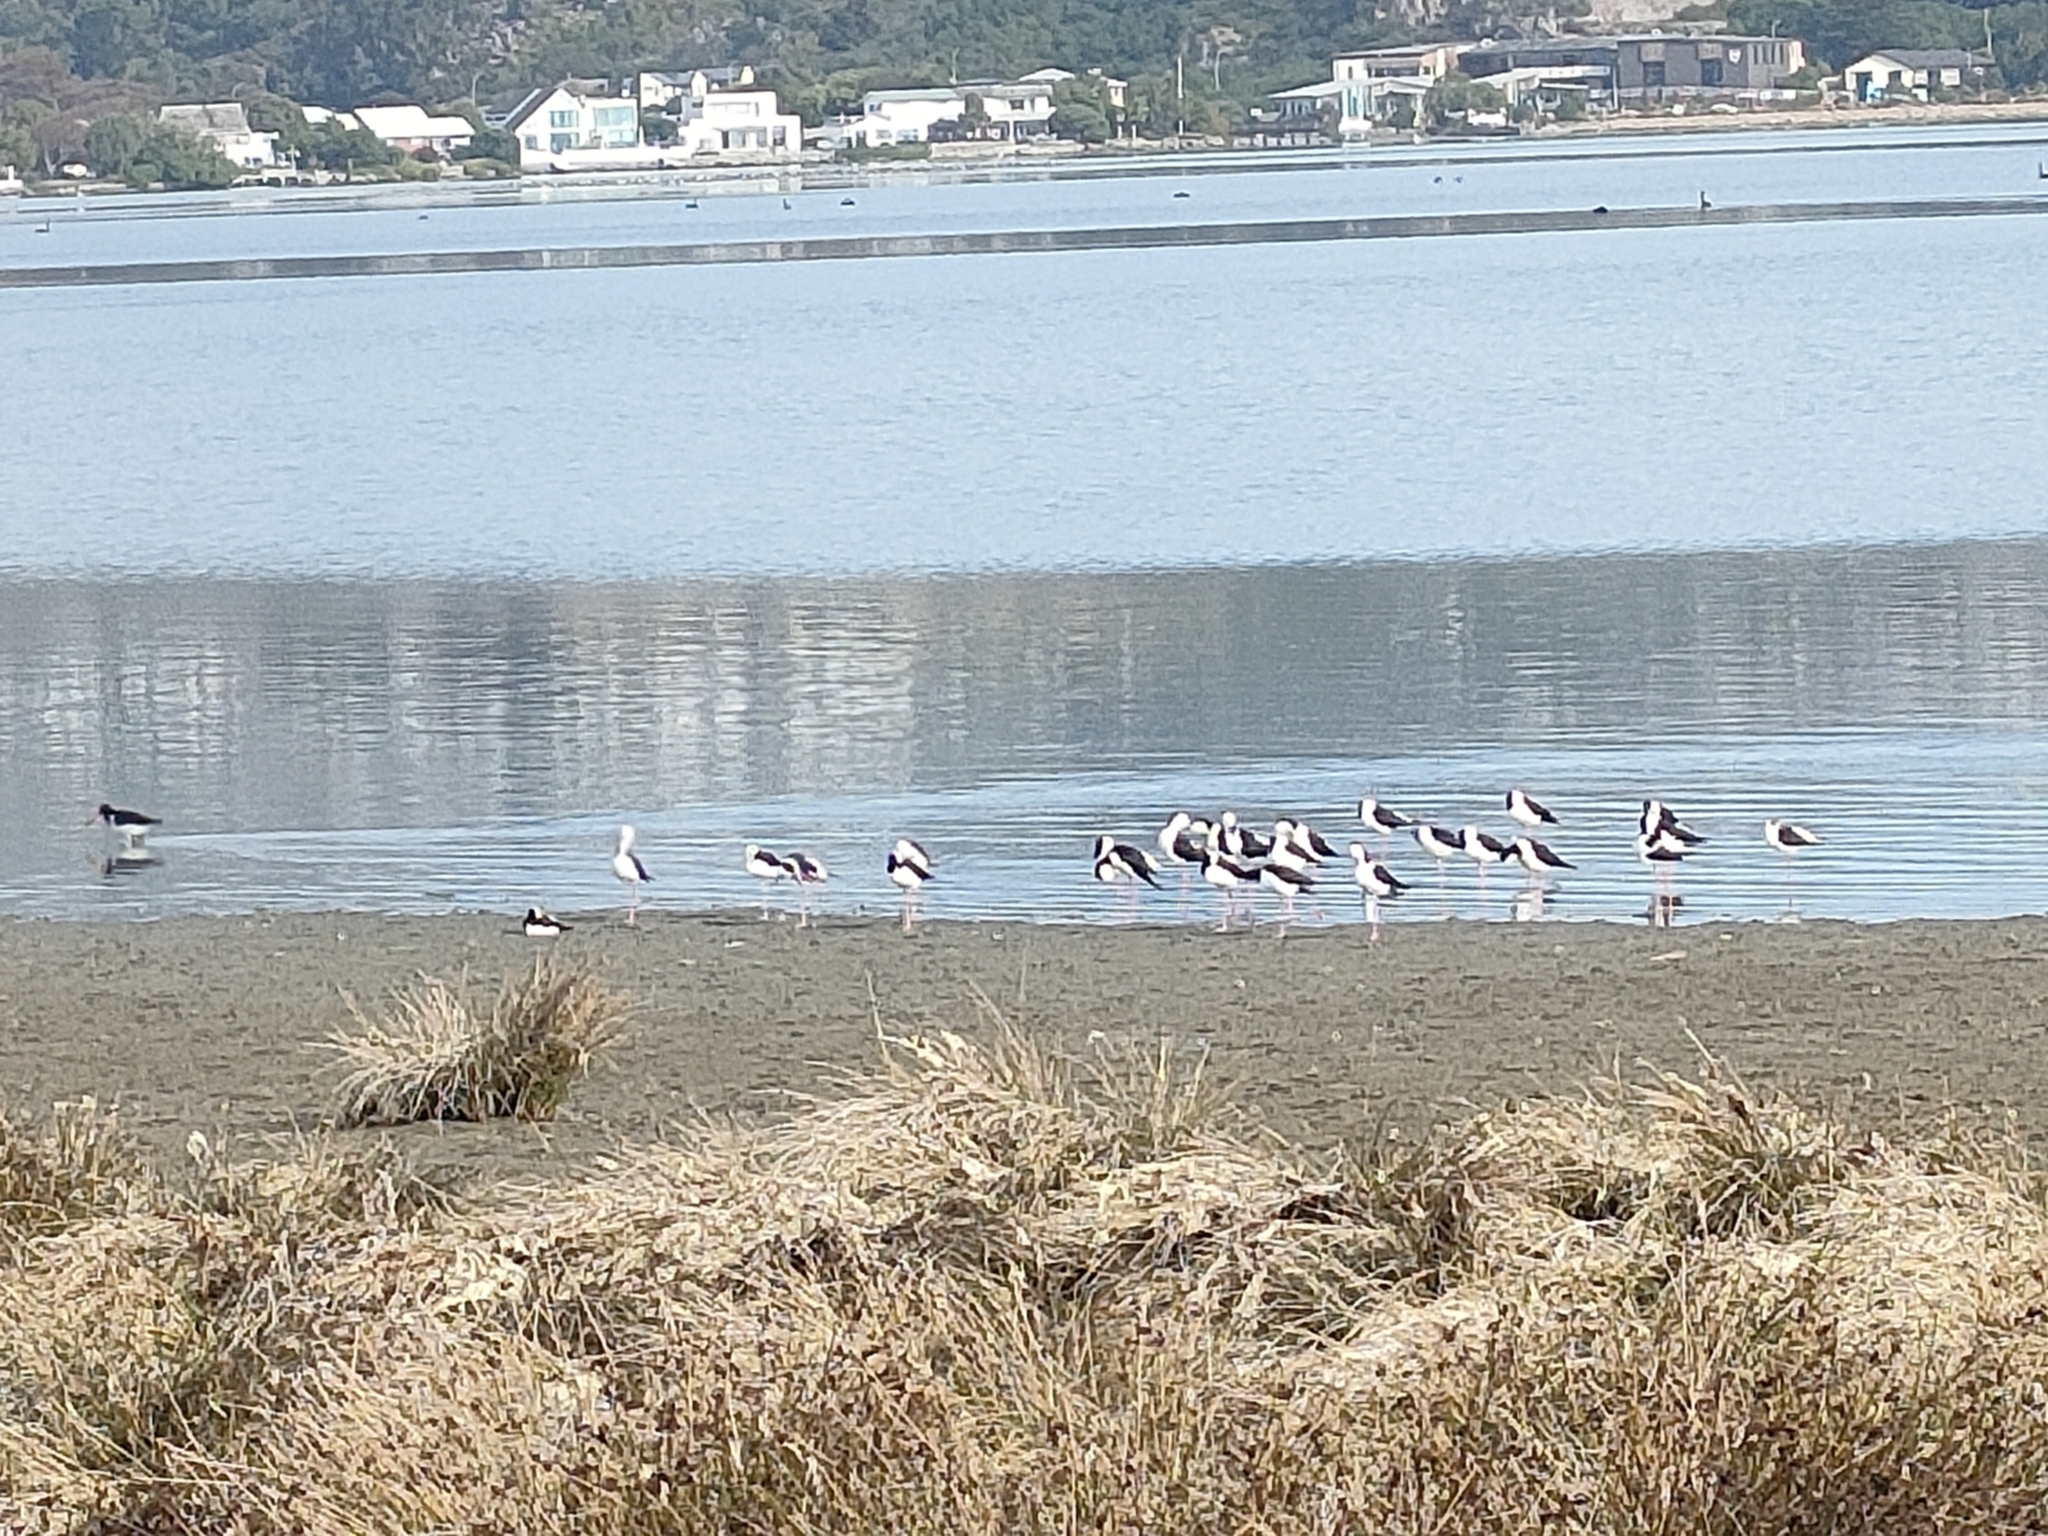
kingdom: Animalia
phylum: Chordata
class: Aves
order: Charadriiformes
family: Recurvirostridae
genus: Himantopus
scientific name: Himantopus leucocephalus
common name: White-headed stilt
